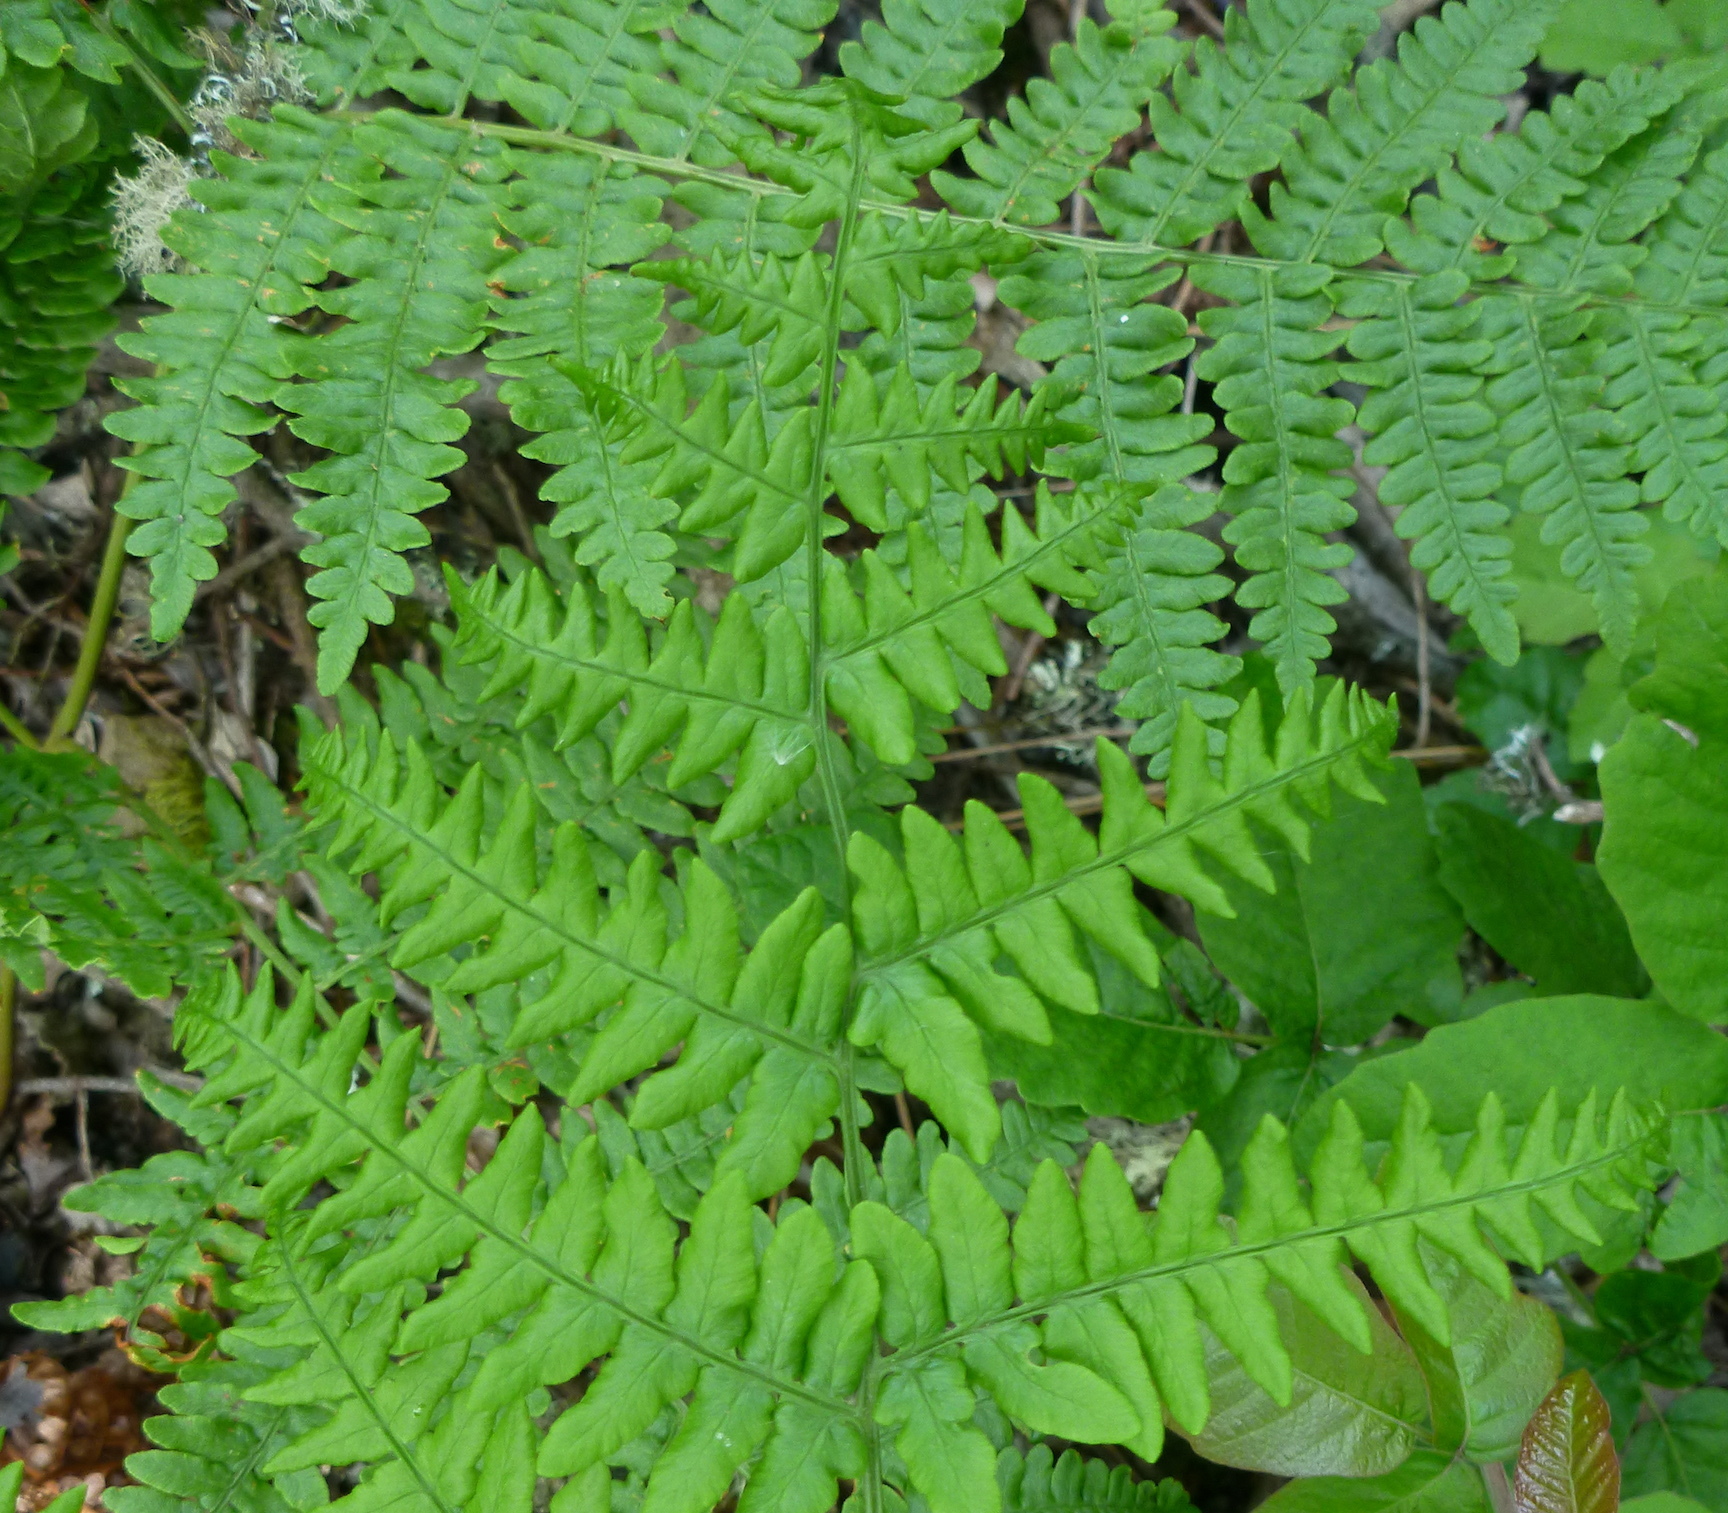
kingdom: Plantae
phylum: Tracheophyta
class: Polypodiopsida
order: Polypodiales
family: Dennstaedtiaceae
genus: Pteridium
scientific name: Pteridium aquilinum
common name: Bracken
